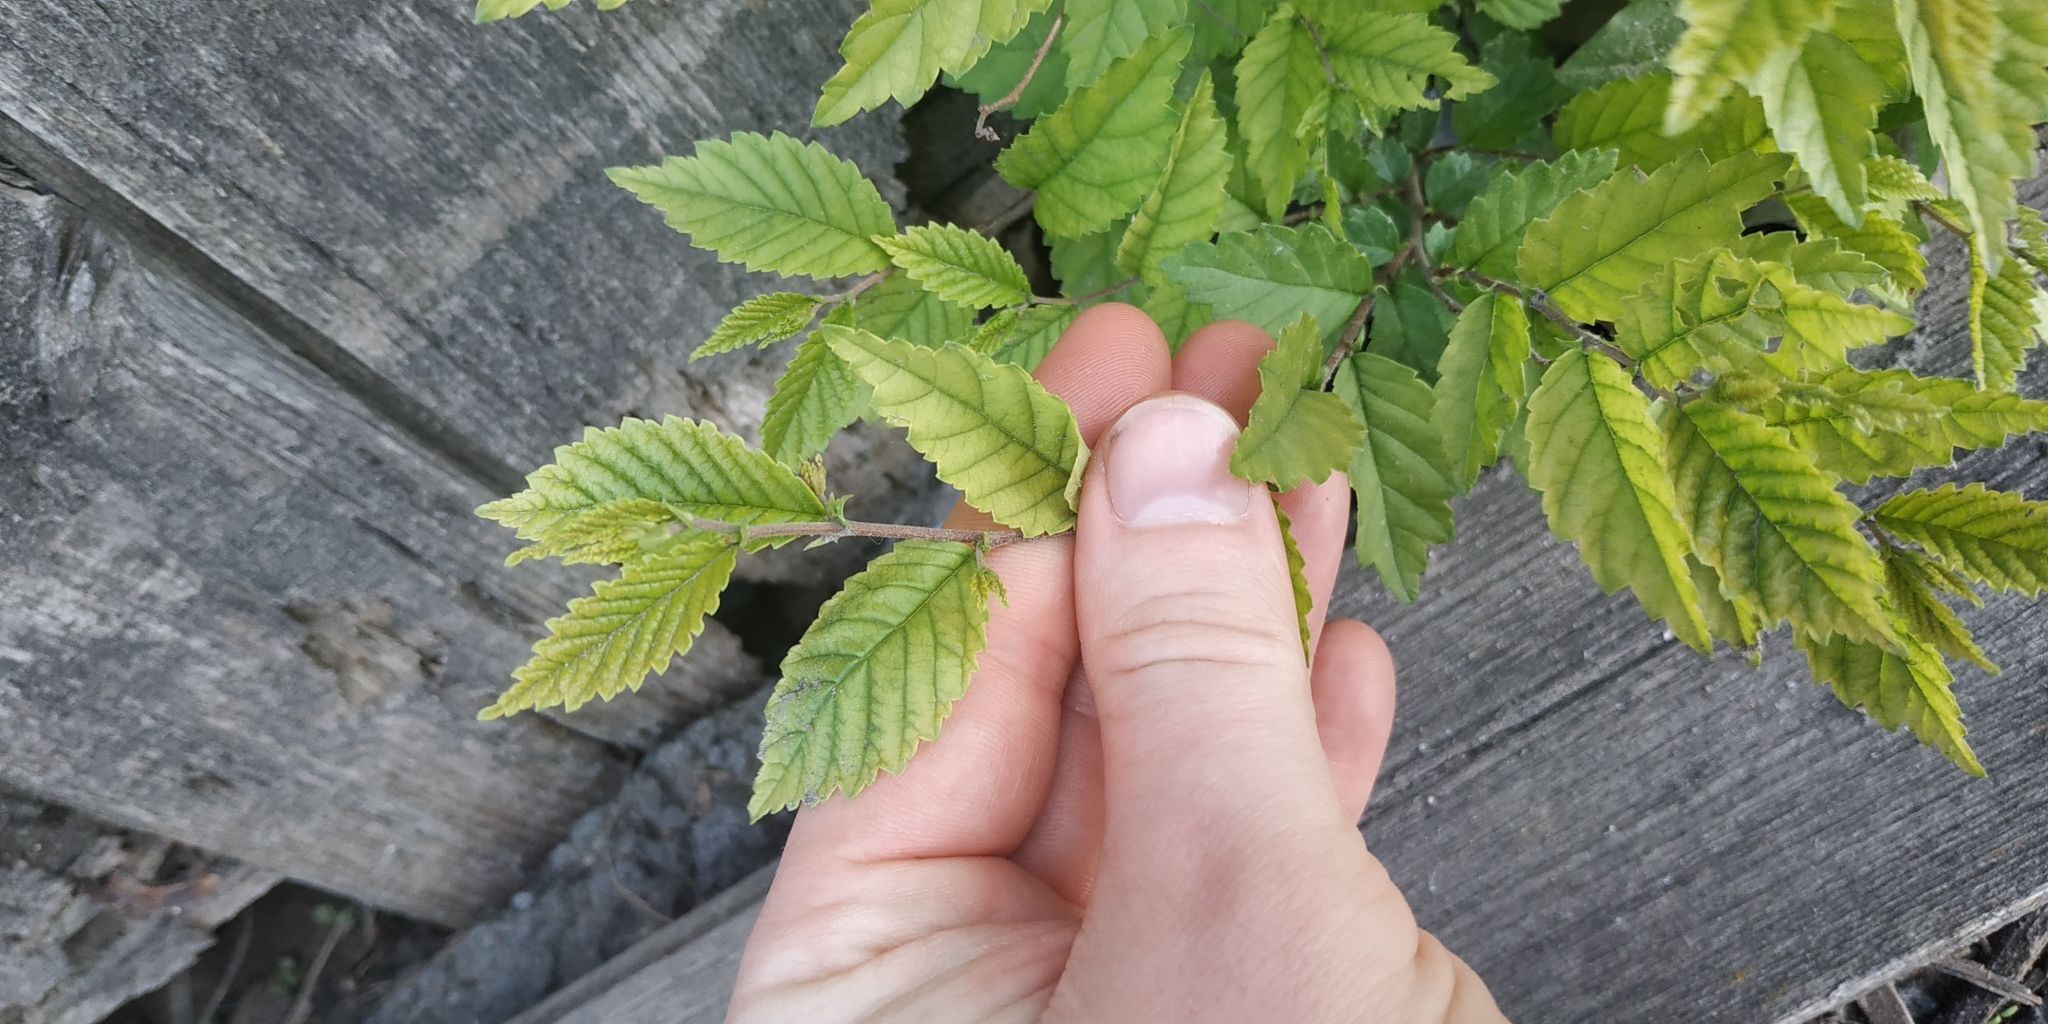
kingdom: Plantae
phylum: Tracheophyta
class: Magnoliopsida
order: Rosales
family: Ulmaceae
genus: Ulmus
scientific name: Ulmus pumila
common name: Siberian elm
